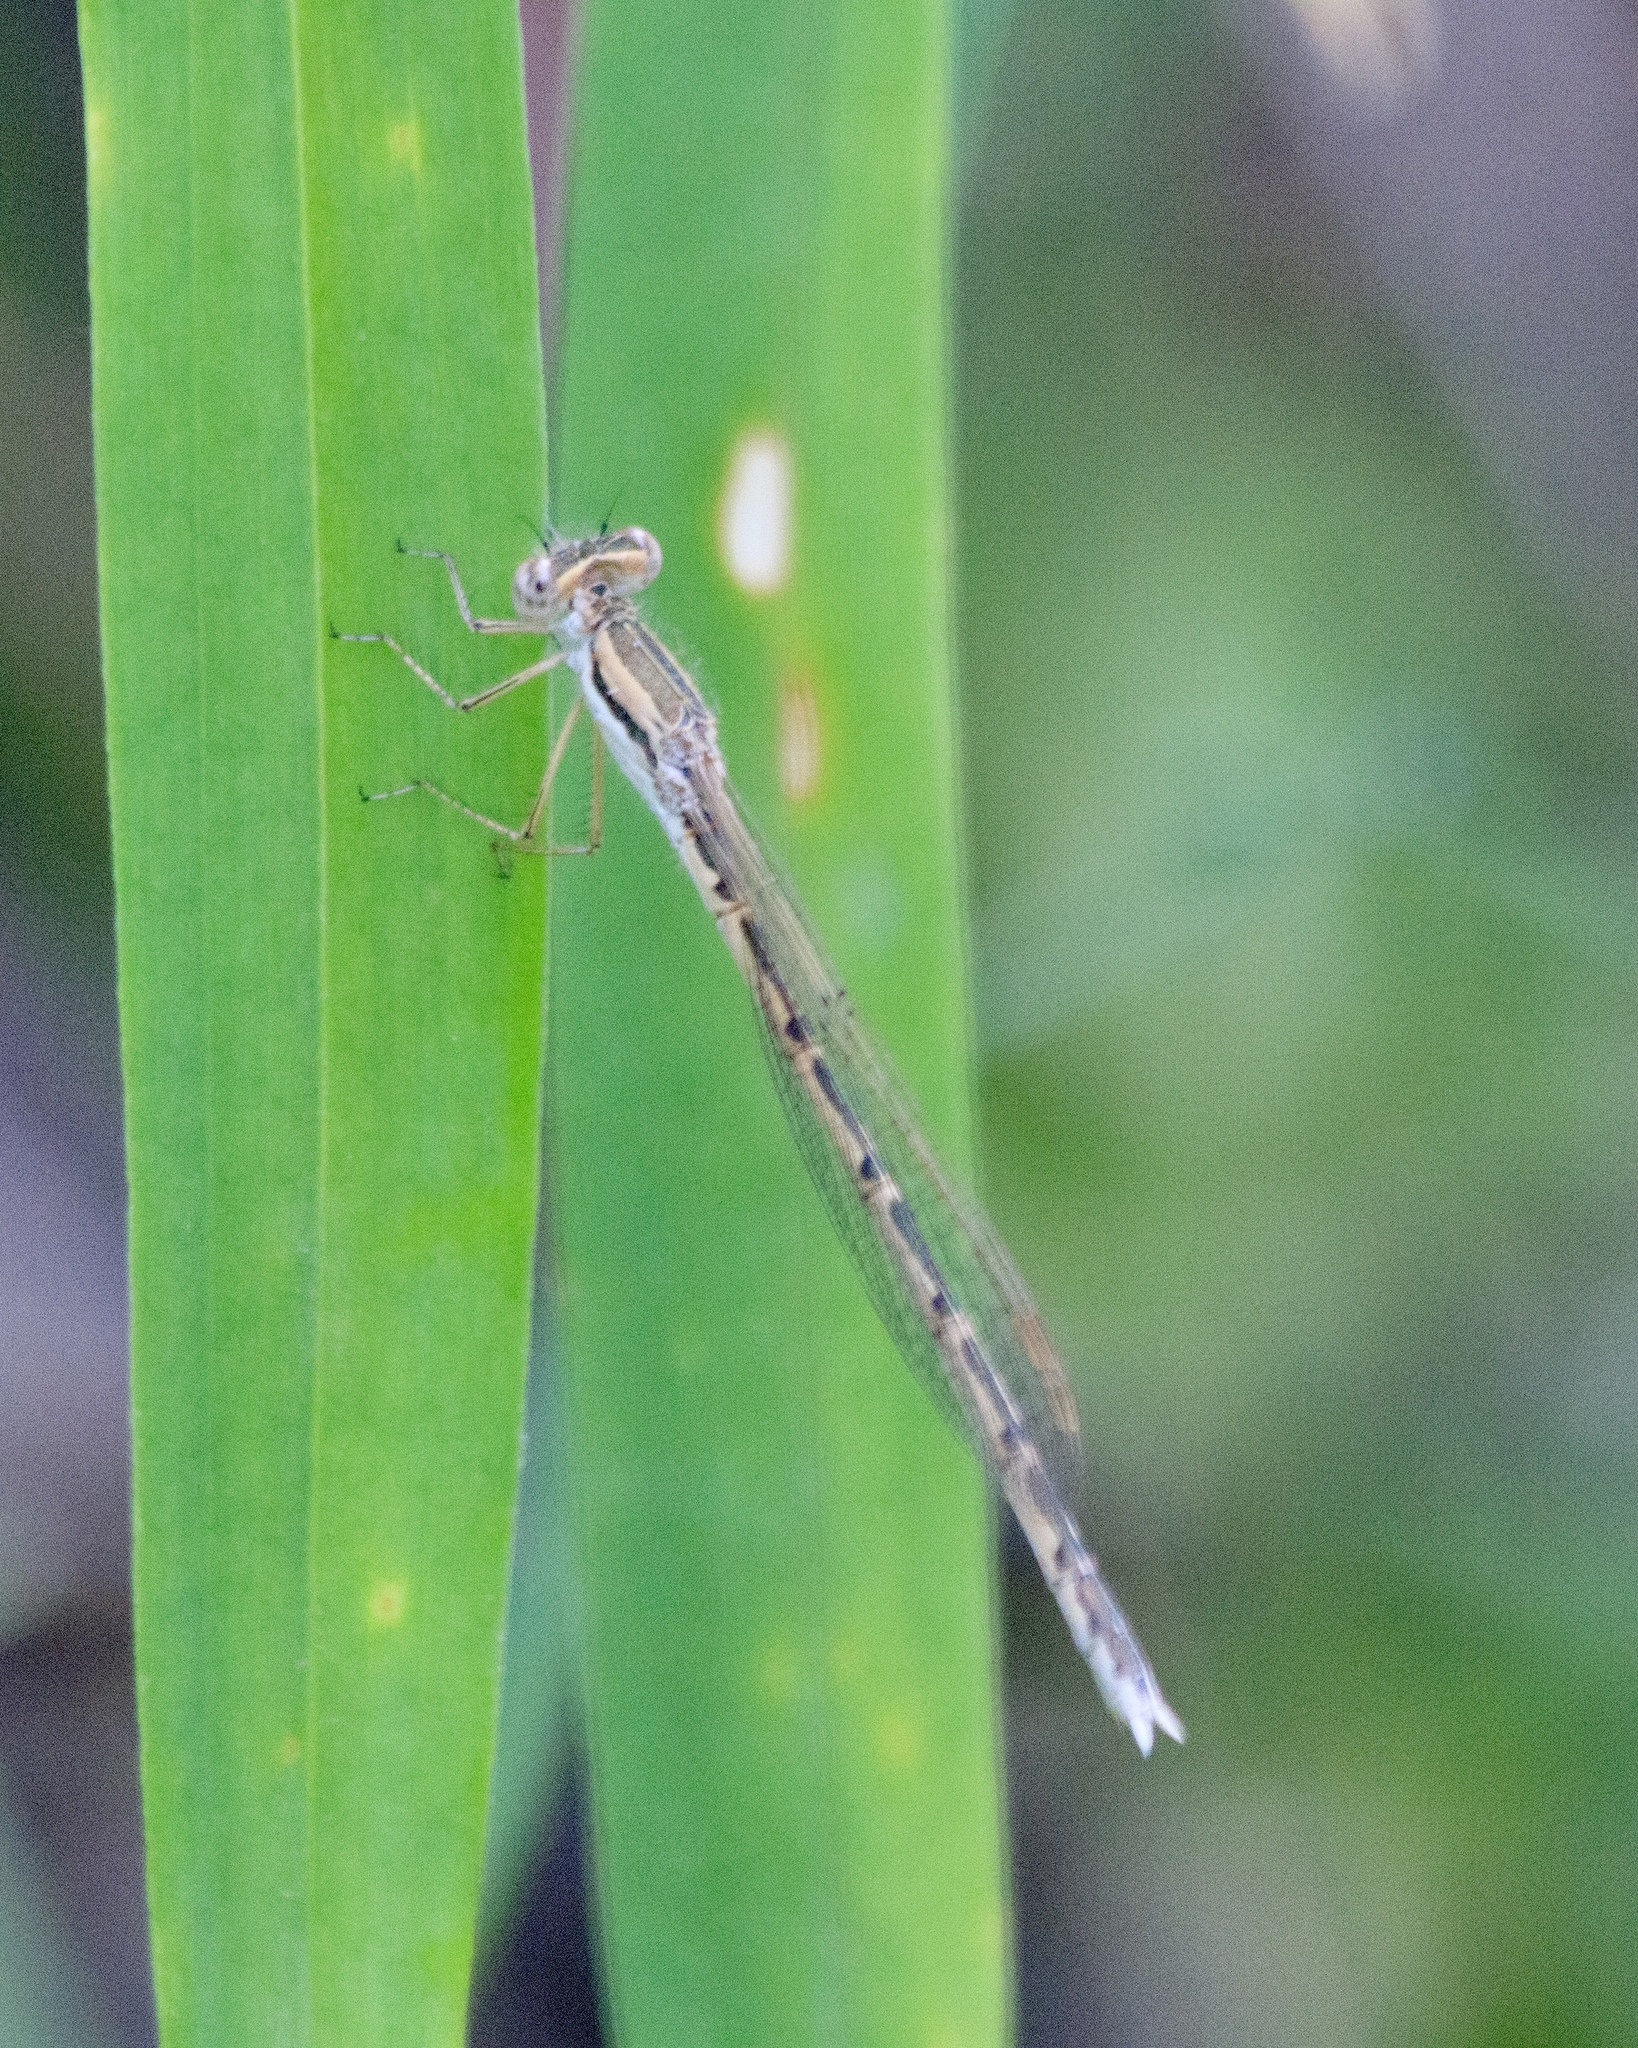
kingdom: Animalia
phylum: Arthropoda
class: Insecta
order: Odonata
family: Lestidae
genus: Sympecma
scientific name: Sympecma fusca
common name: Common winter damsel
